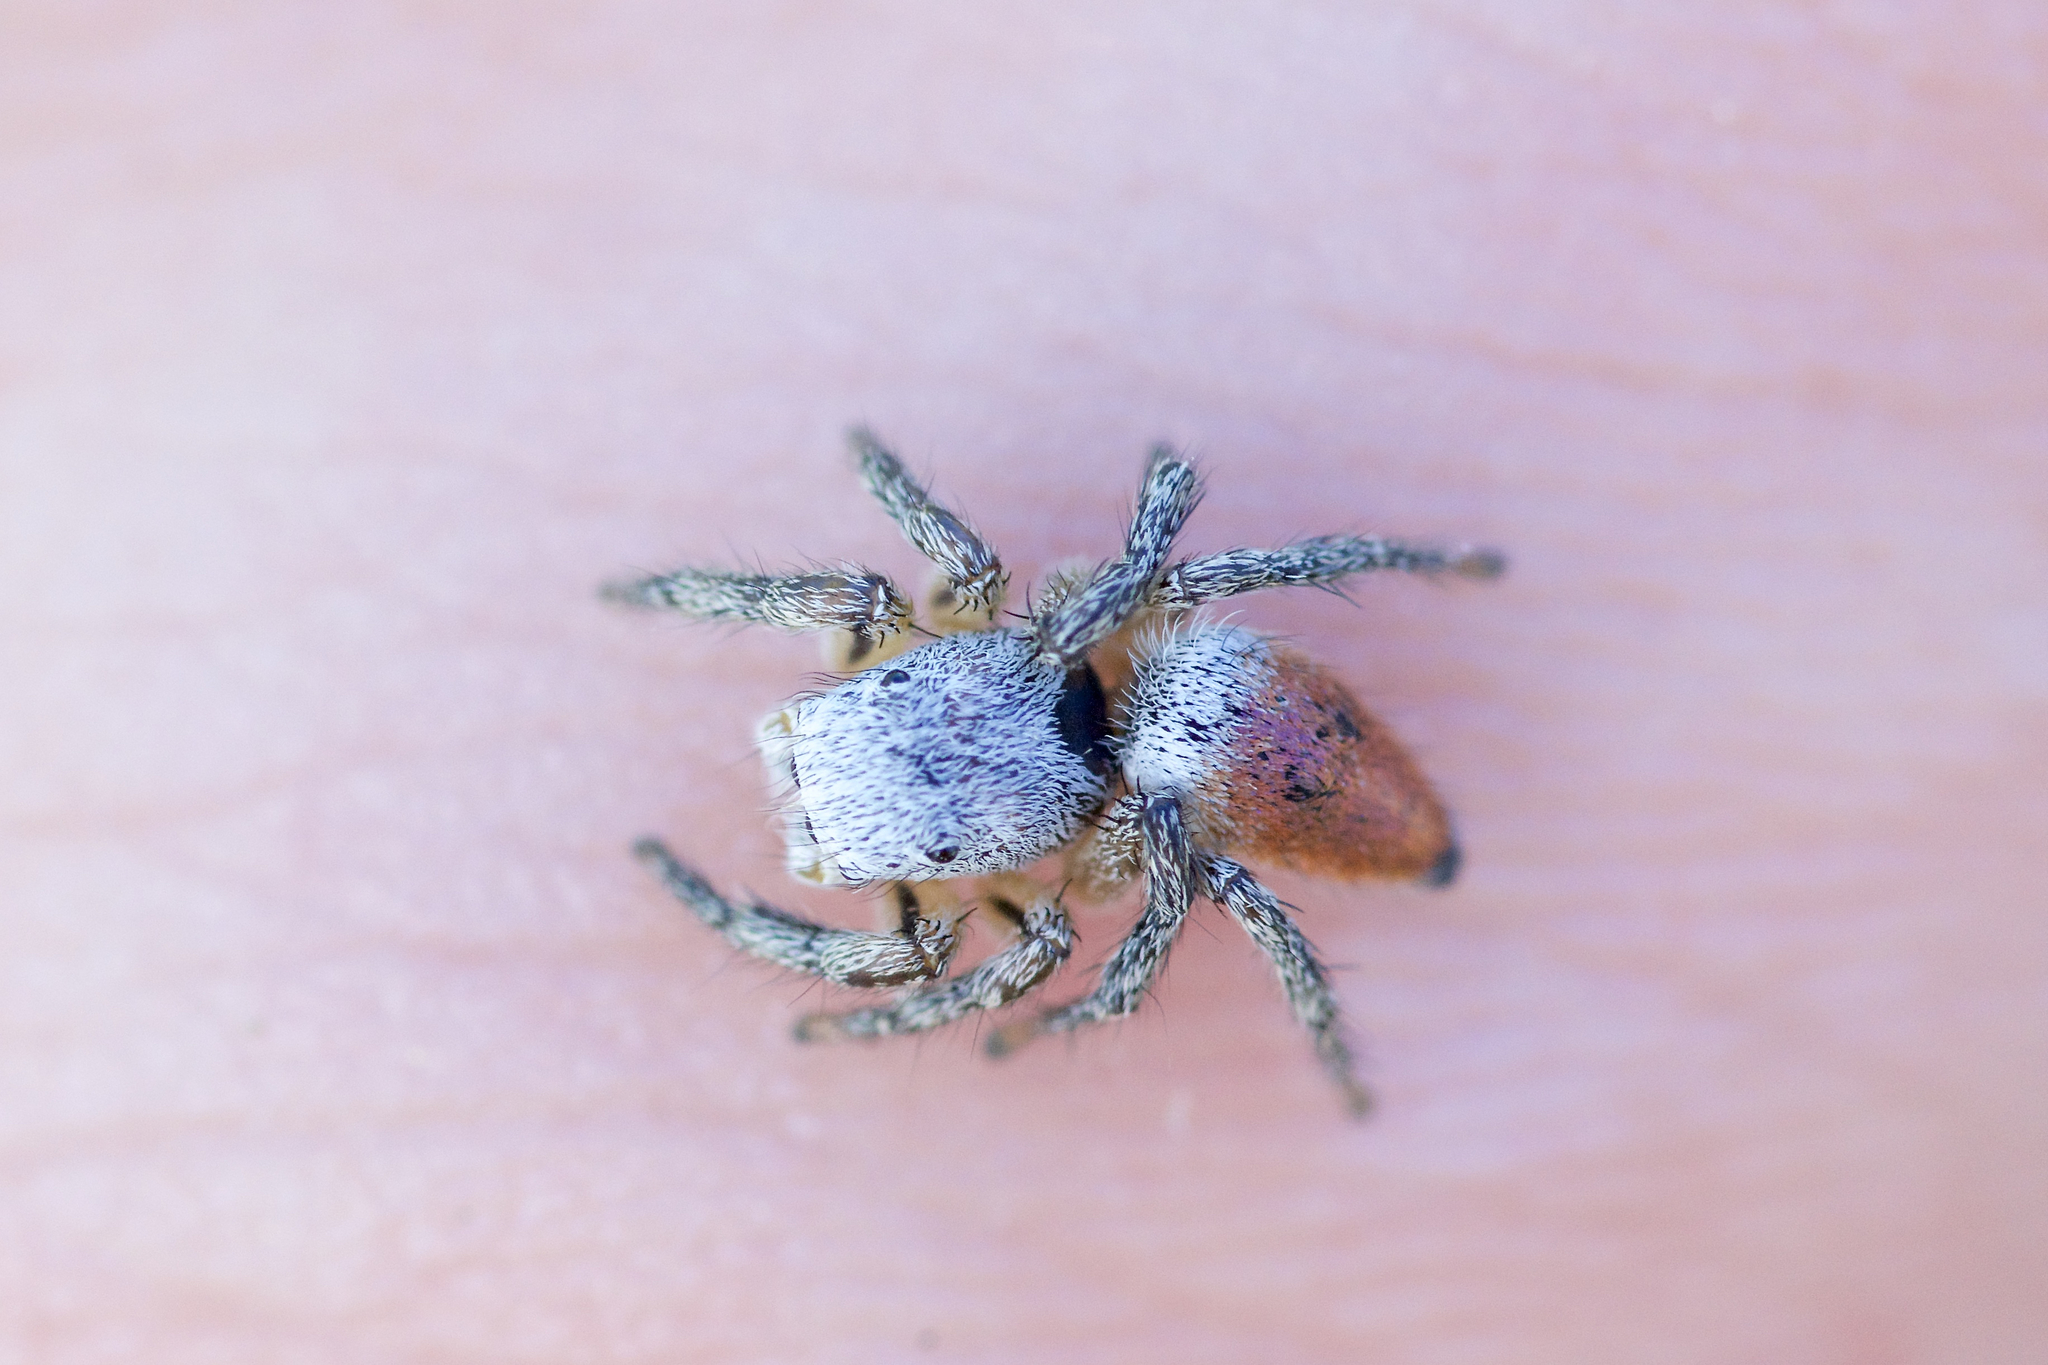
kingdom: Animalia
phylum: Arthropoda
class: Arachnida
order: Araneae
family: Salticidae
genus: Habronattus
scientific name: Habronattus decorus
